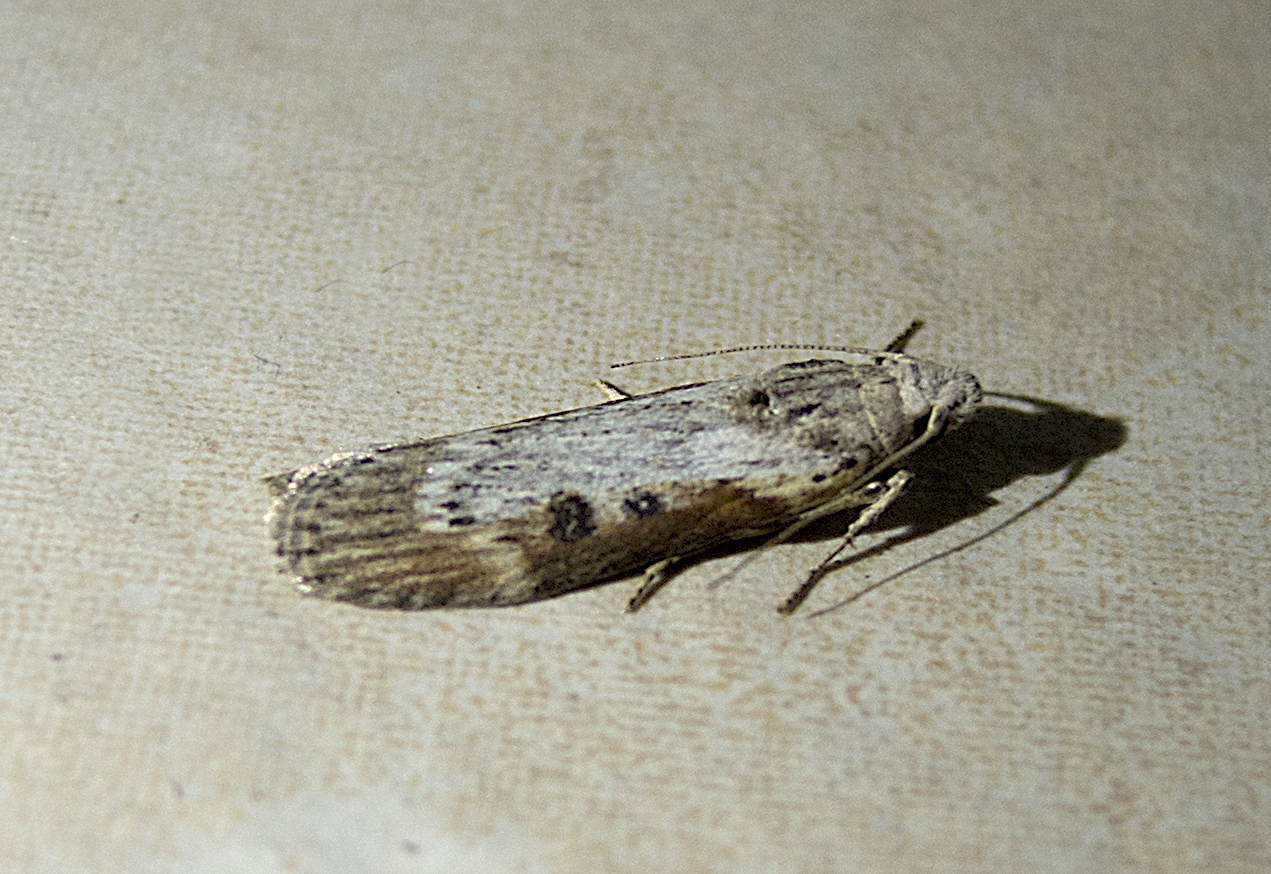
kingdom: Animalia
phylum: Arthropoda
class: Insecta
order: Lepidoptera
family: Geometridae
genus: Idaea
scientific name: Idaea politaria
